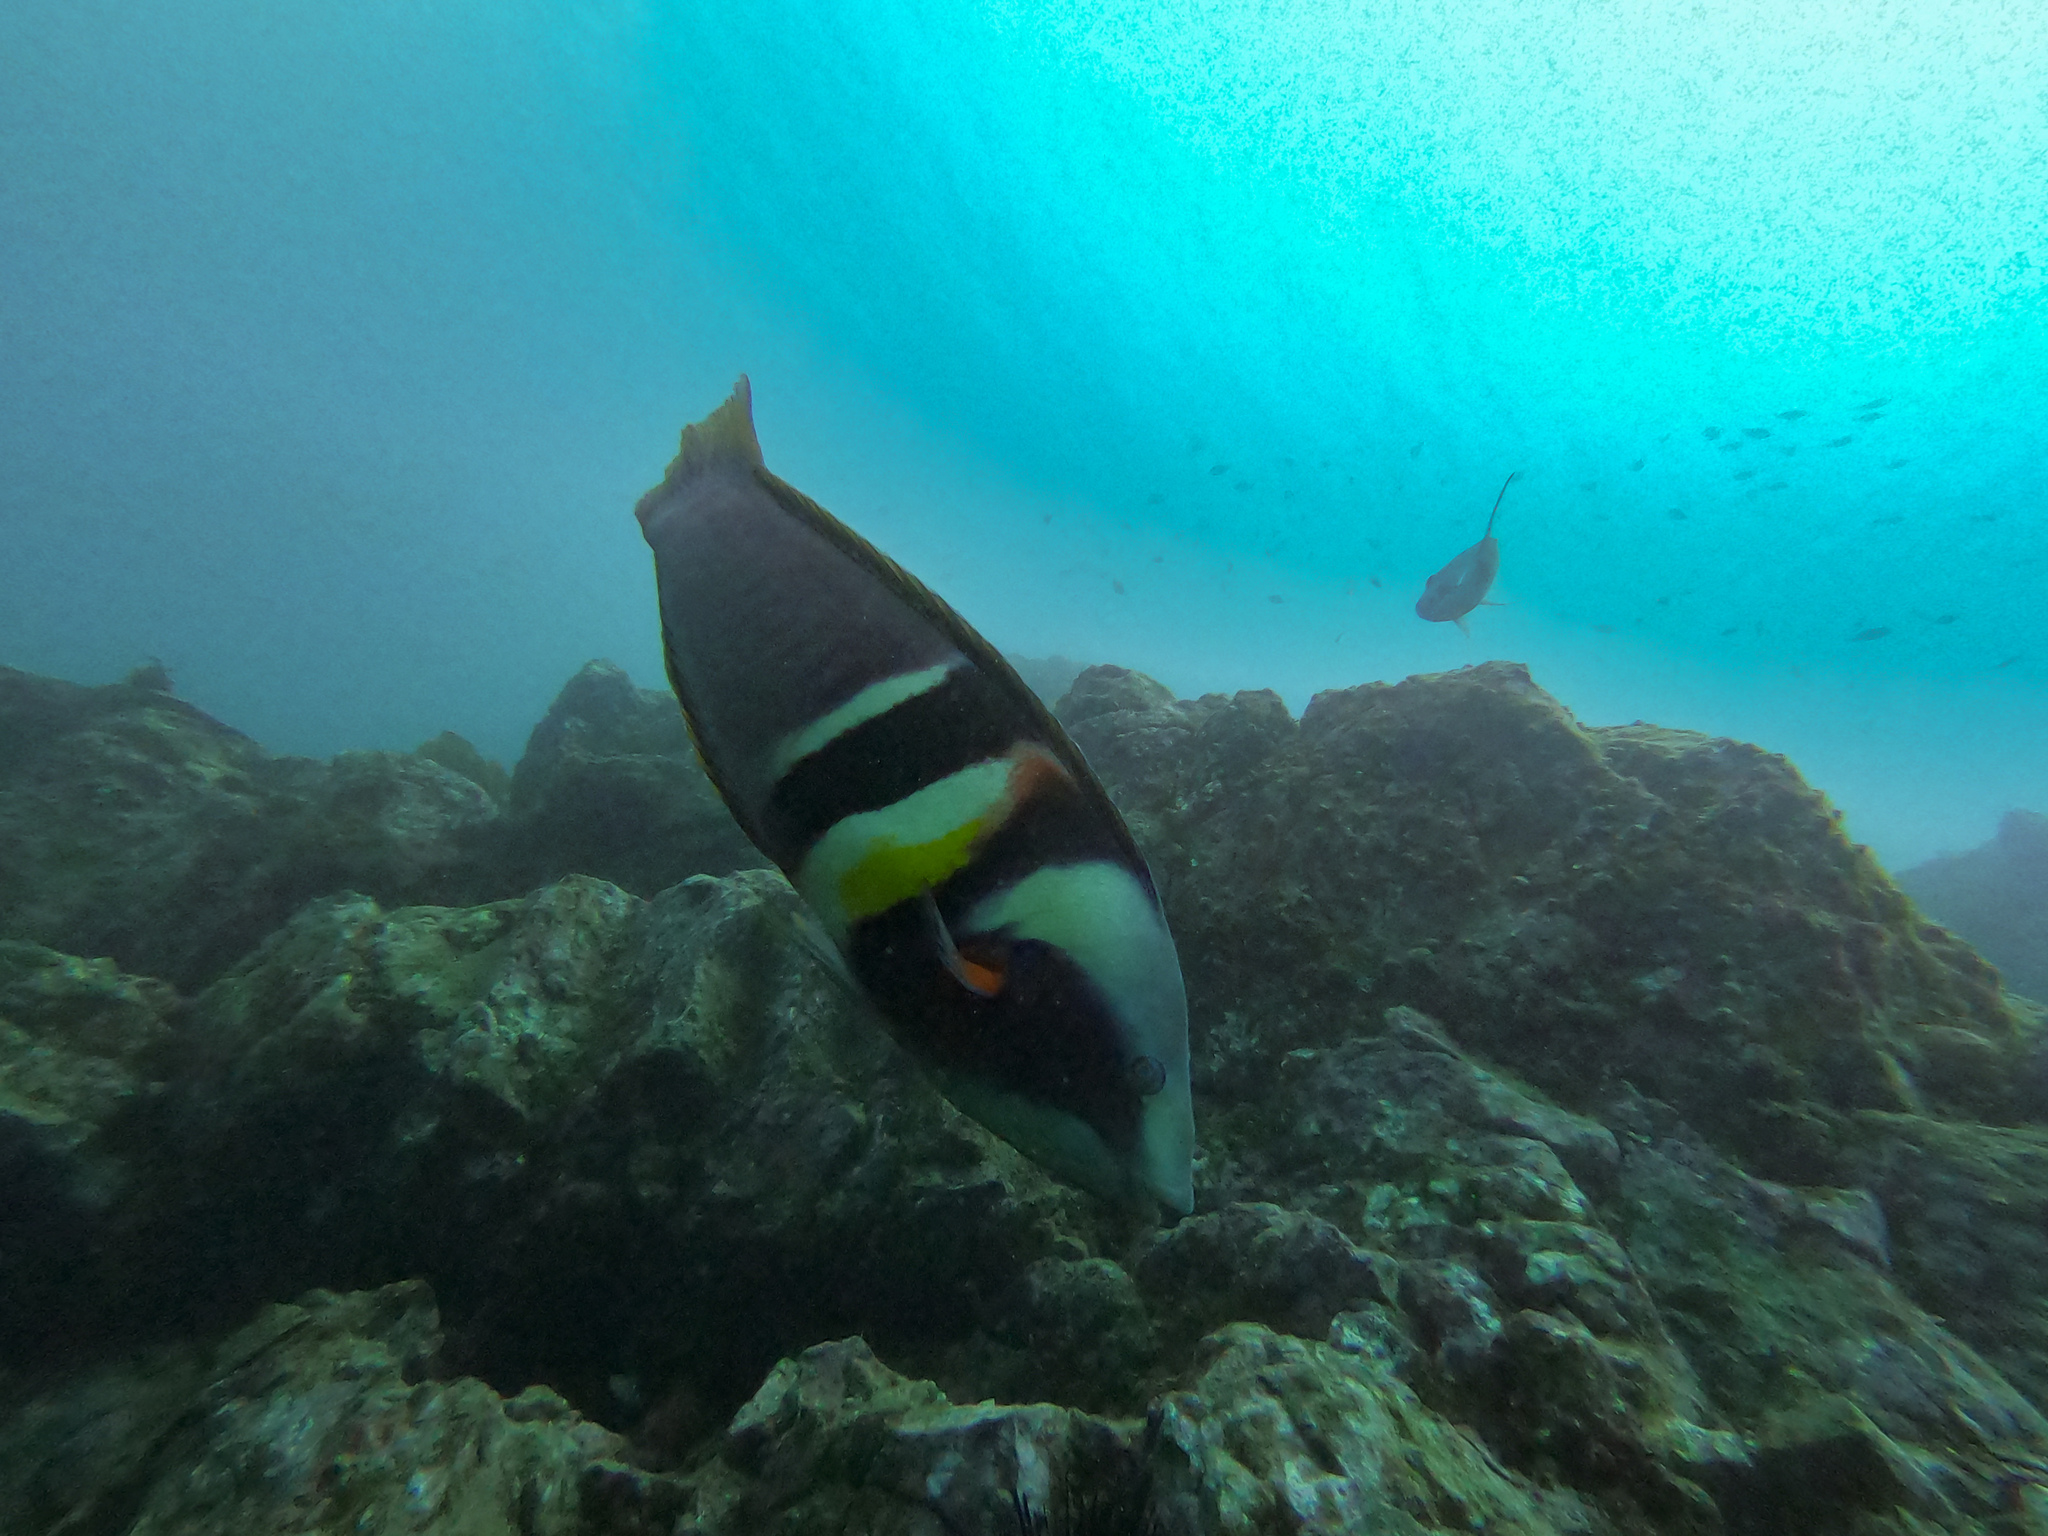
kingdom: Animalia
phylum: Chordata
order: Perciformes
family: Labridae
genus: Coris
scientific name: Coris sandeyeri
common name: Sandager's wrasse
